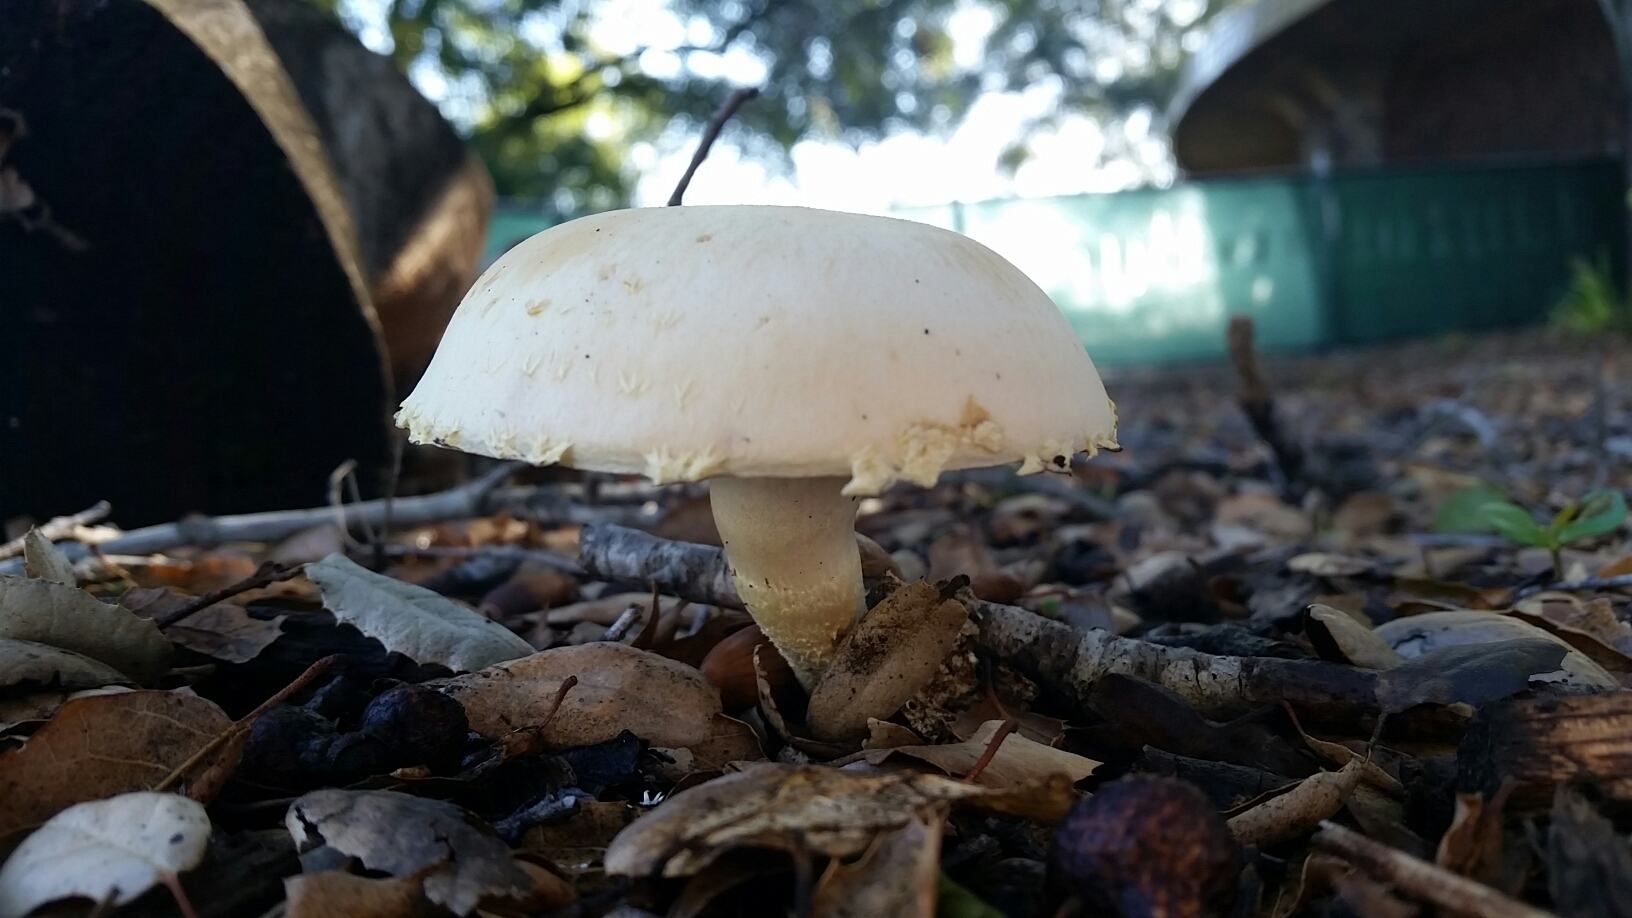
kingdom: Fungi
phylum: Basidiomycota
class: Agaricomycetes
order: Agaricales
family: Strophariaceae
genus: Leratiomyces
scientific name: Leratiomyces percevalii
